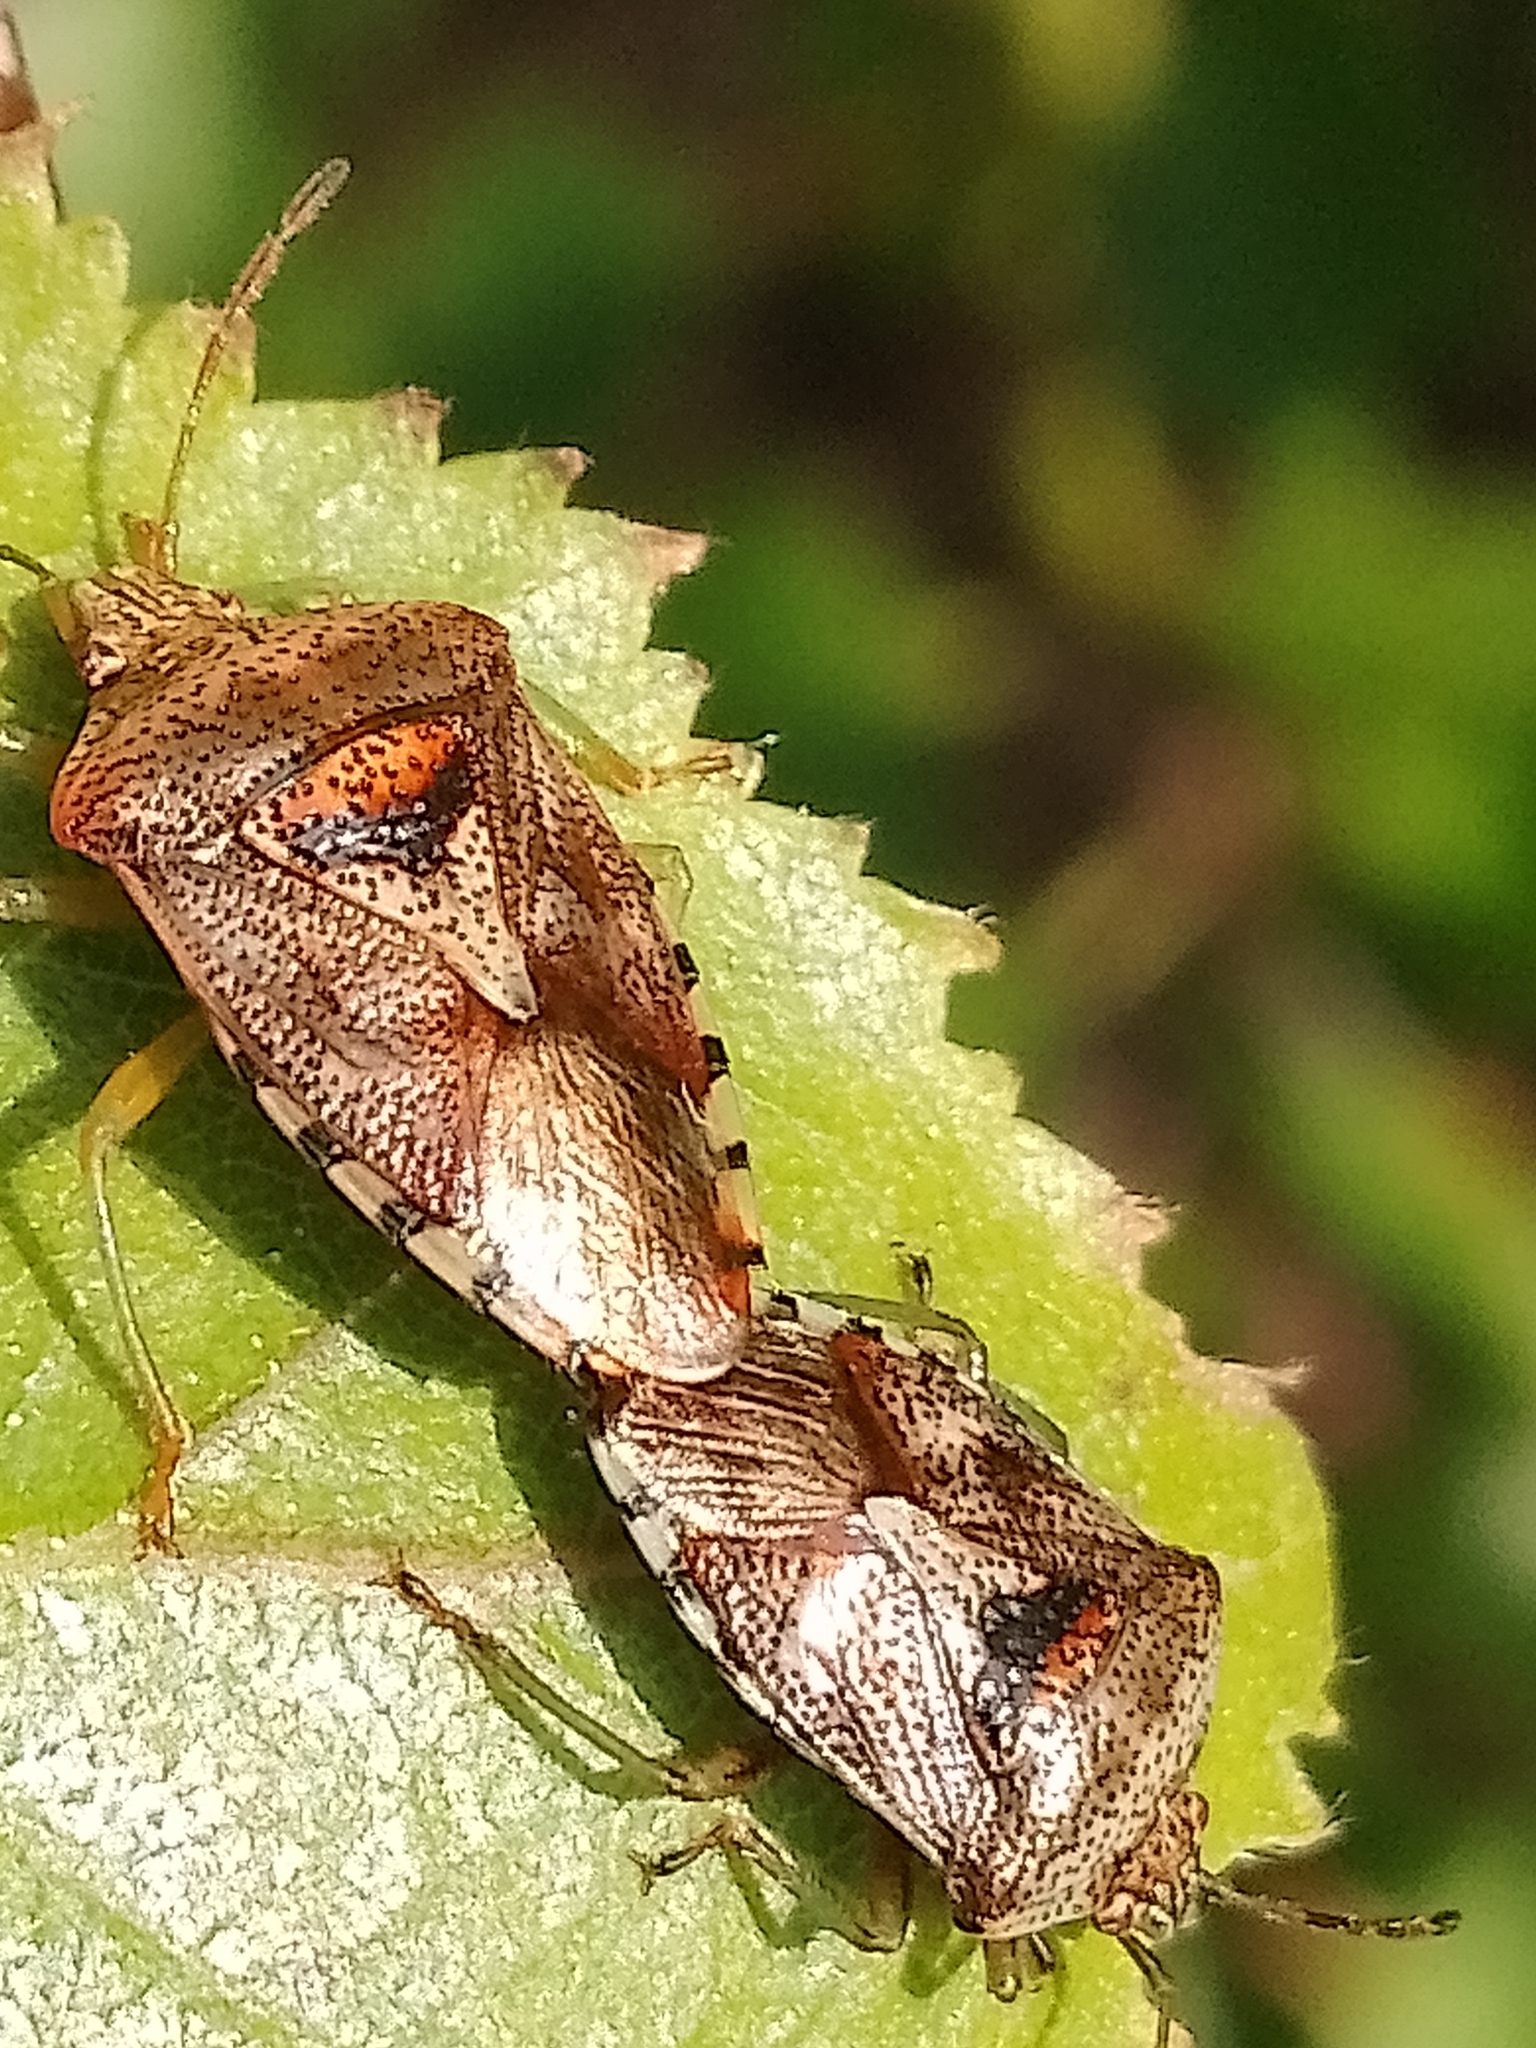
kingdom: Animalia
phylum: Arthropoda
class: Insecta
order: Hemiptera
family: Acanthosomatidae
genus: Elasmucha
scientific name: Elasmucha grisea
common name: Parent bug
